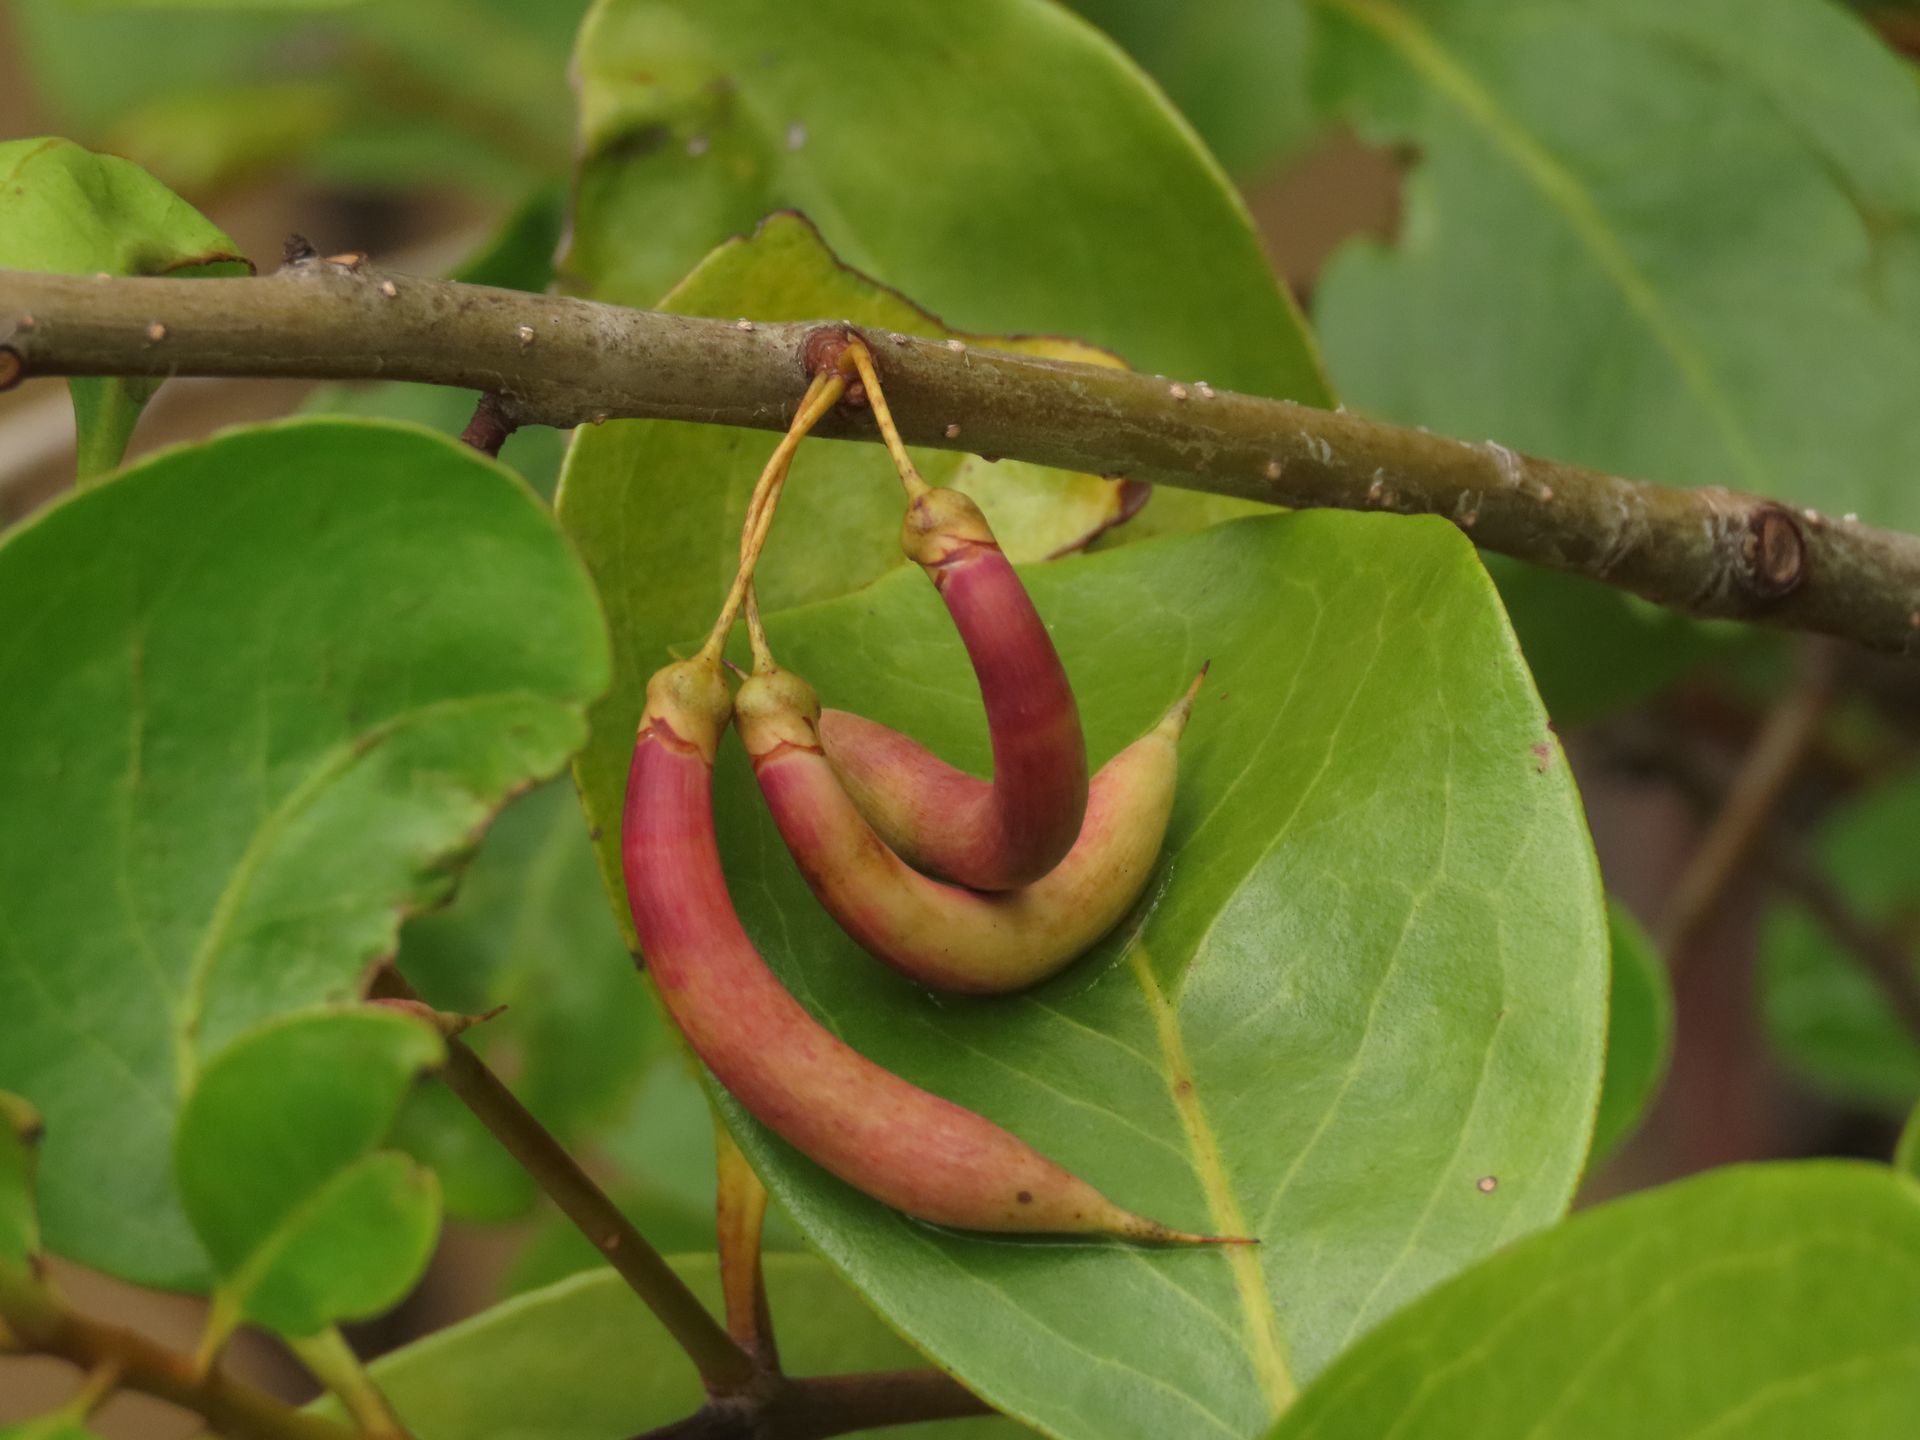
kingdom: Plantae
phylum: Tracheophyta
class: Magnoliopsida
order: Ericales
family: Primulaceae
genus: Aegiceras
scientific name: Aegiceras corniculatum
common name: River mangrove
